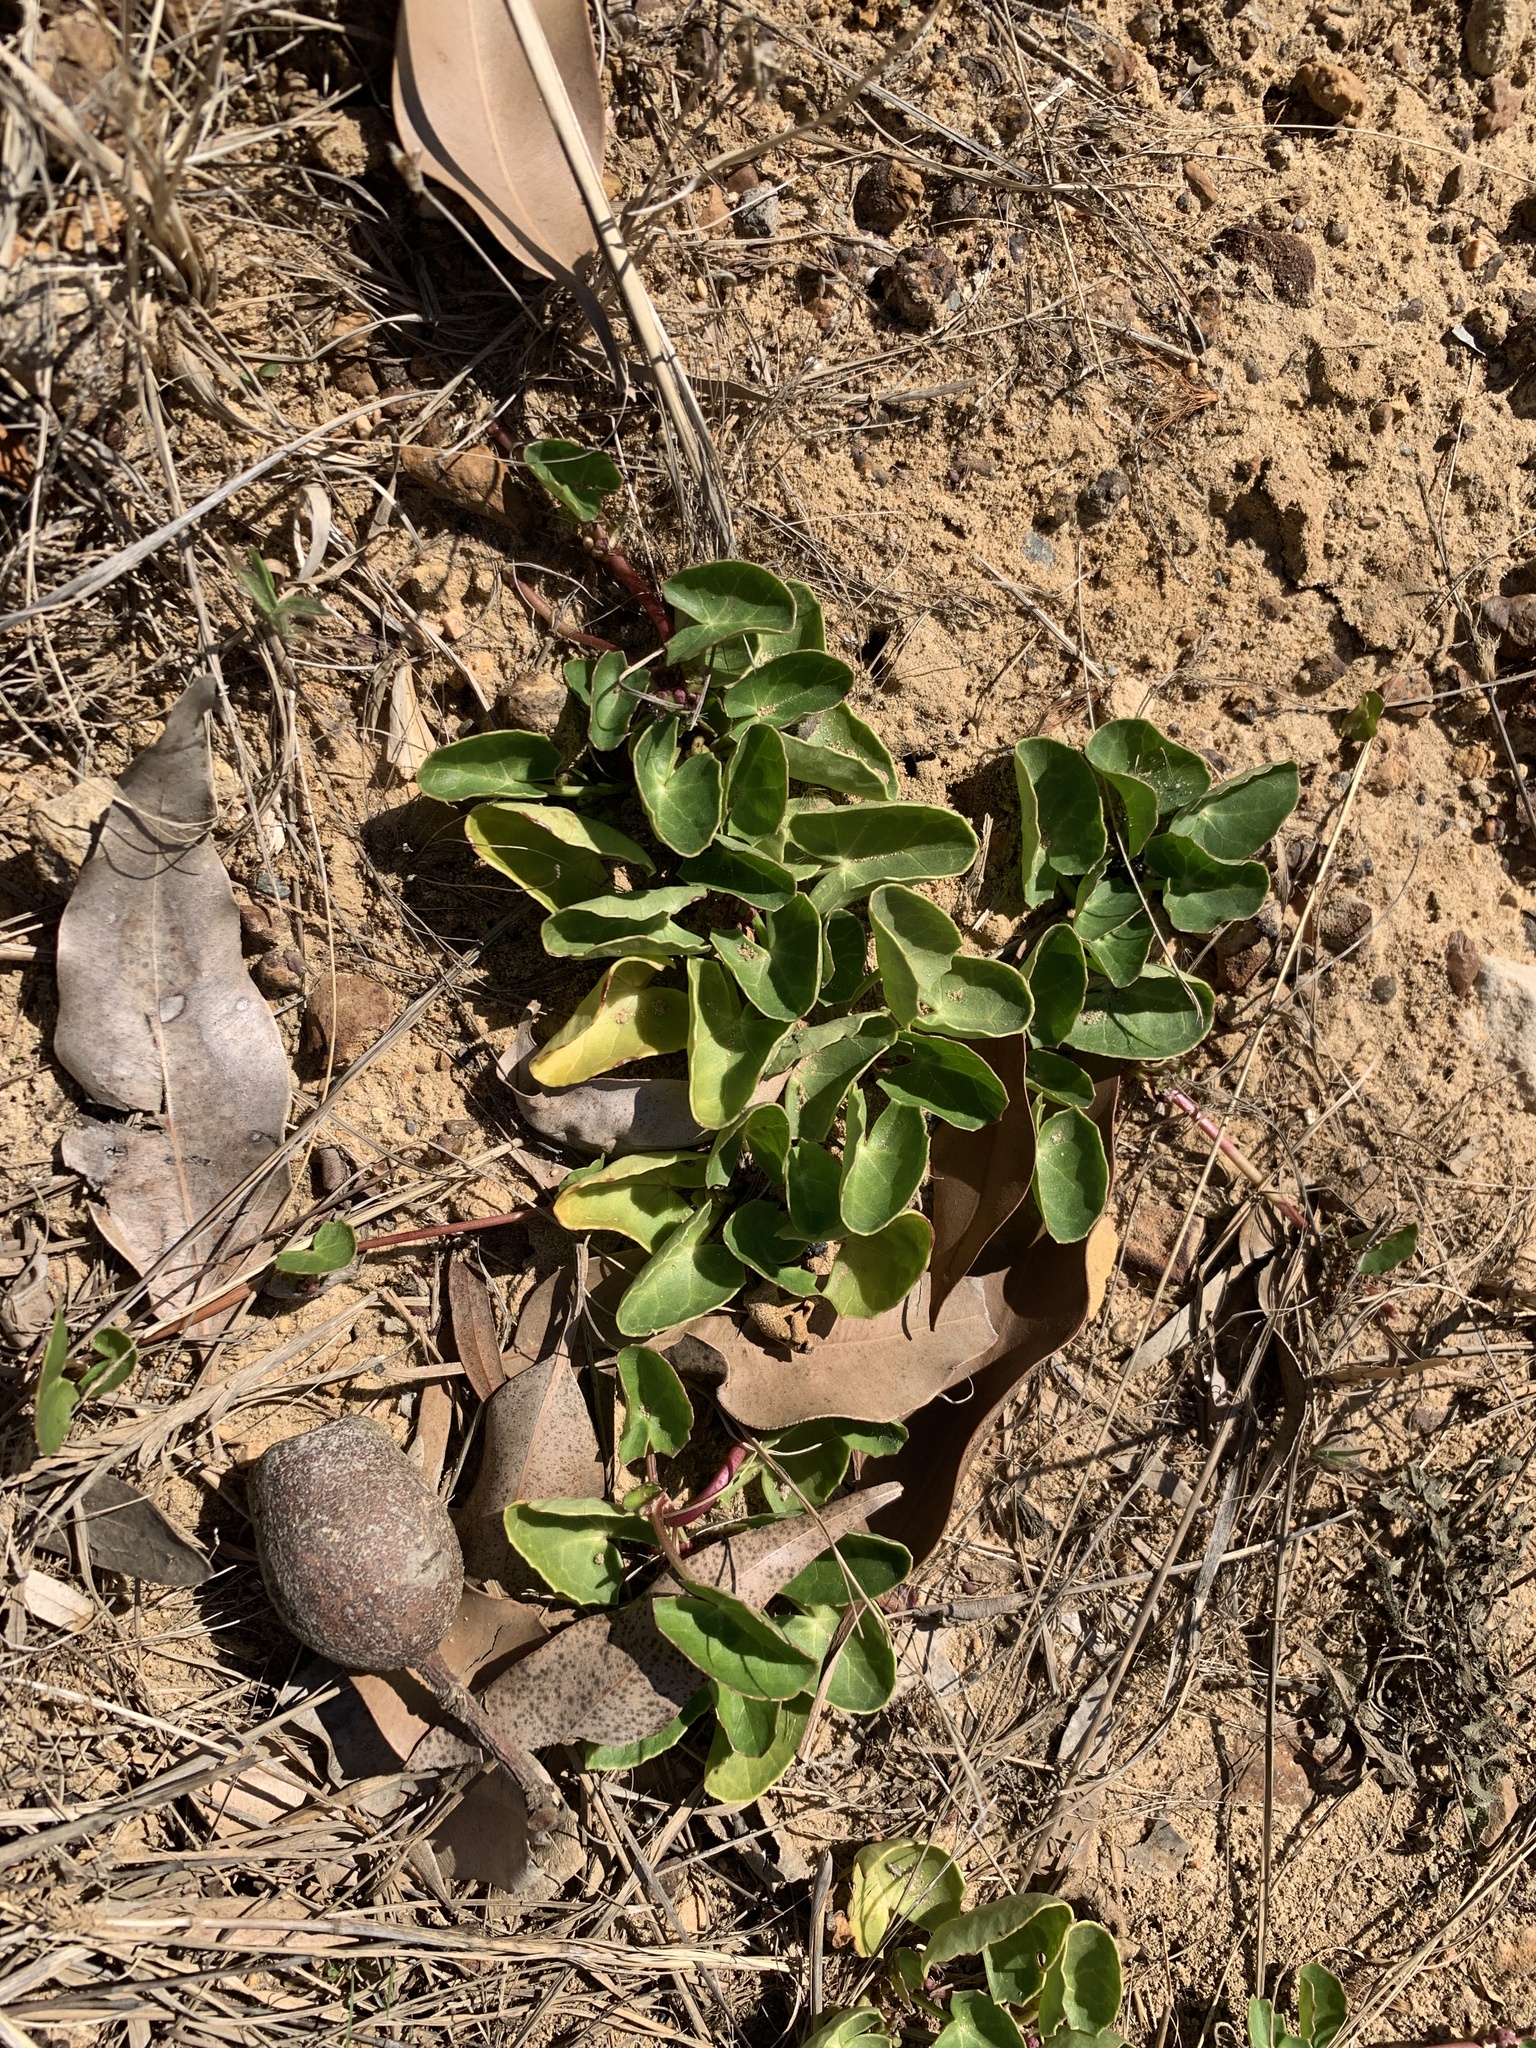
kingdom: Plantae
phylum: Tracheophyta
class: Magnoliopsida
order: Apiales
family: Apiaceae
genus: Centella
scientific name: Centella asiatica
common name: Spadeleaf
